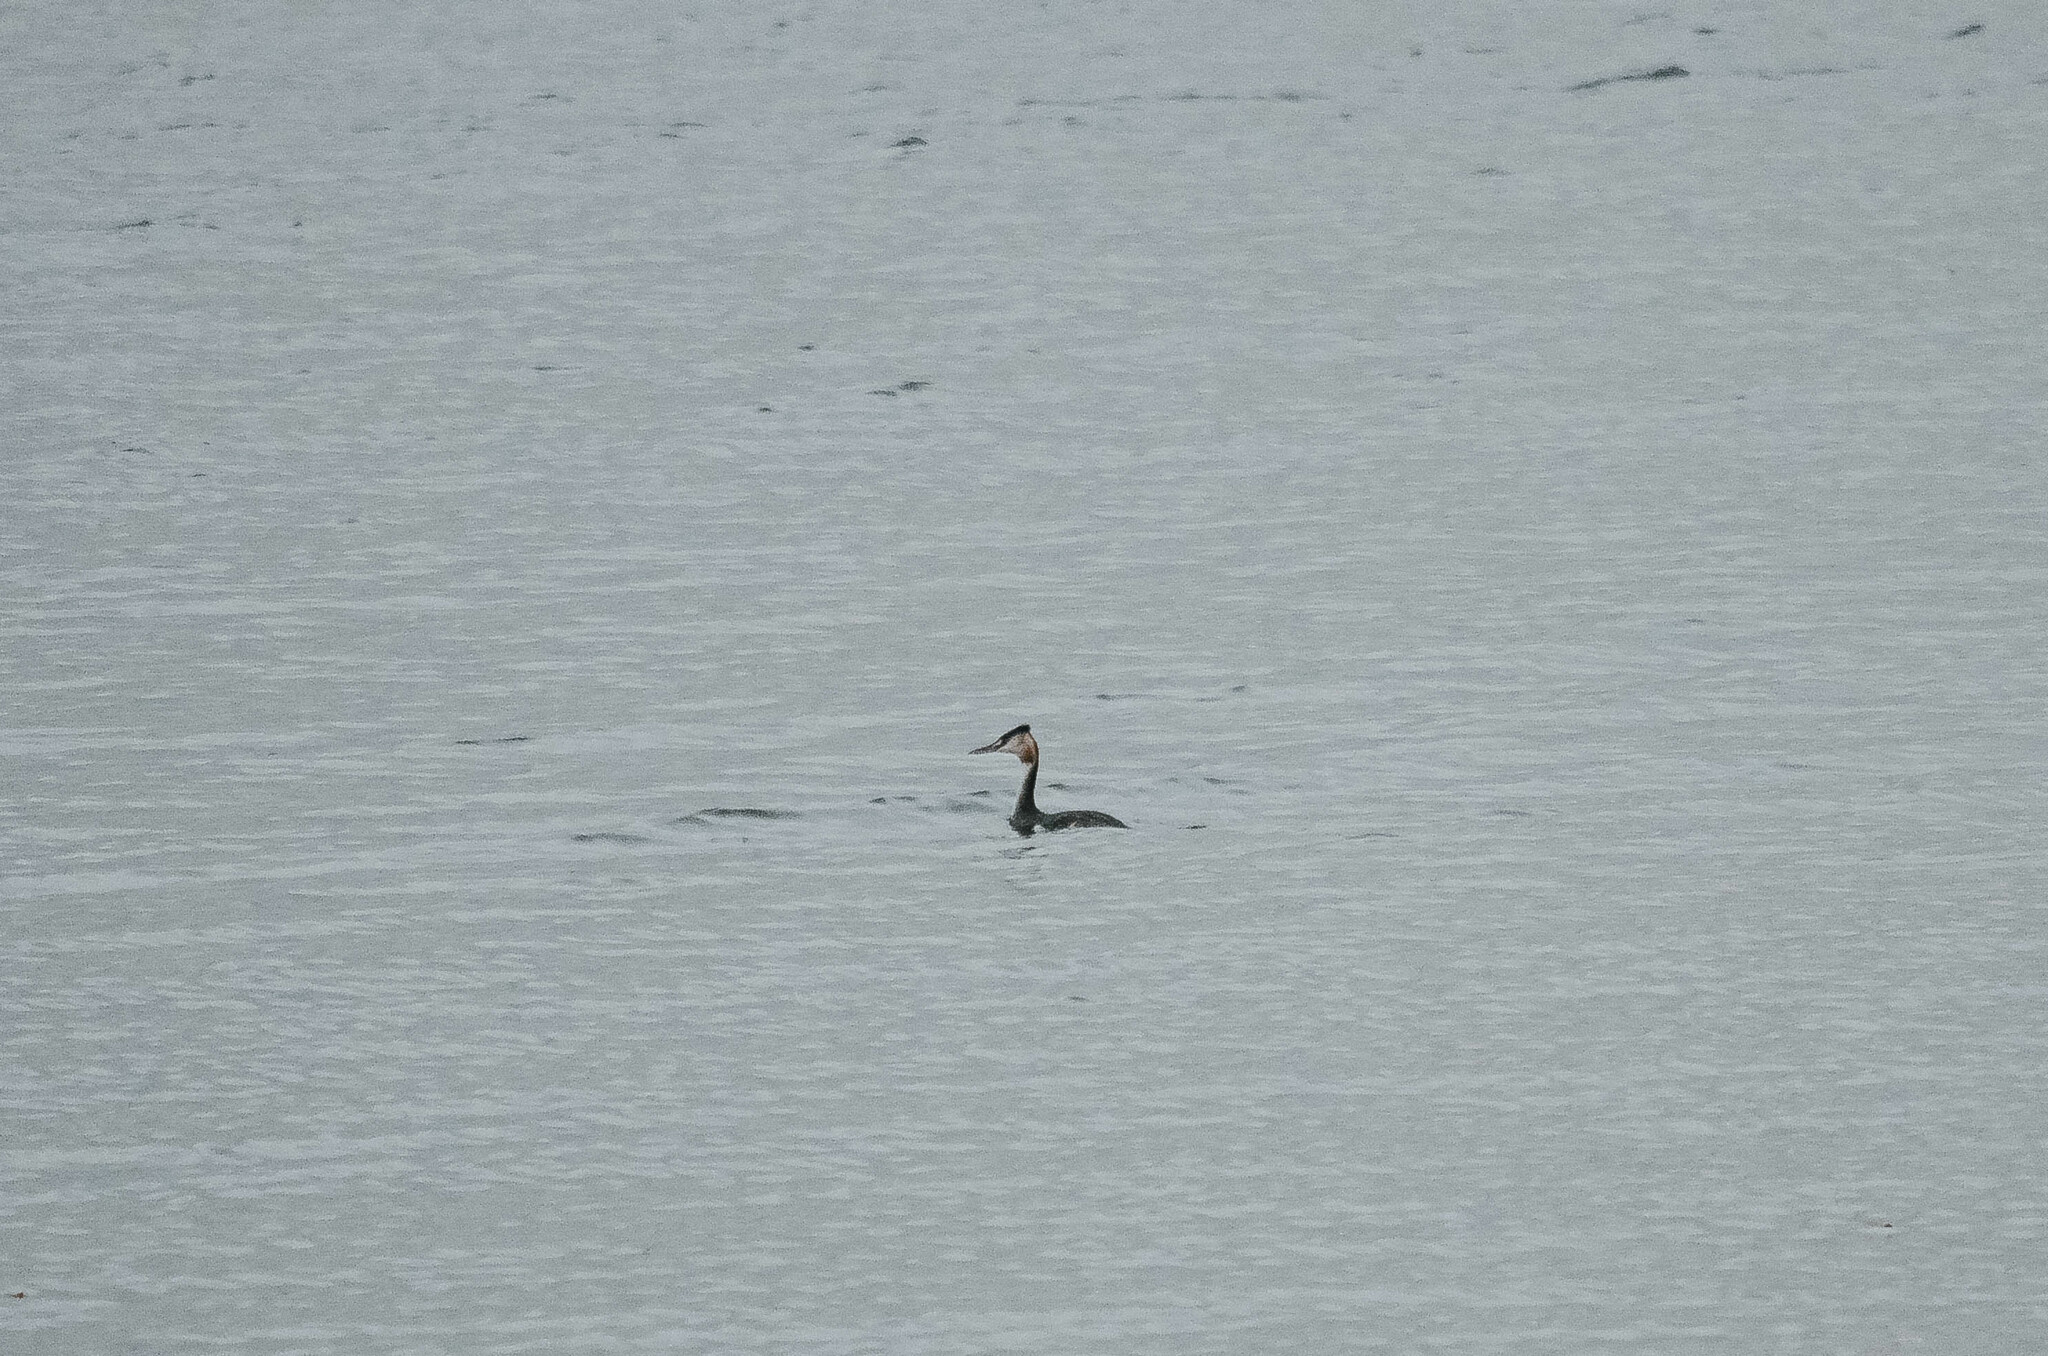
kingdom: Animalia
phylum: Chordata
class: Aves
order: Podicipediformes
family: Podicipedidae
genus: Podiceps
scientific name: Podiceps cristatus
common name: Great crested grebe
